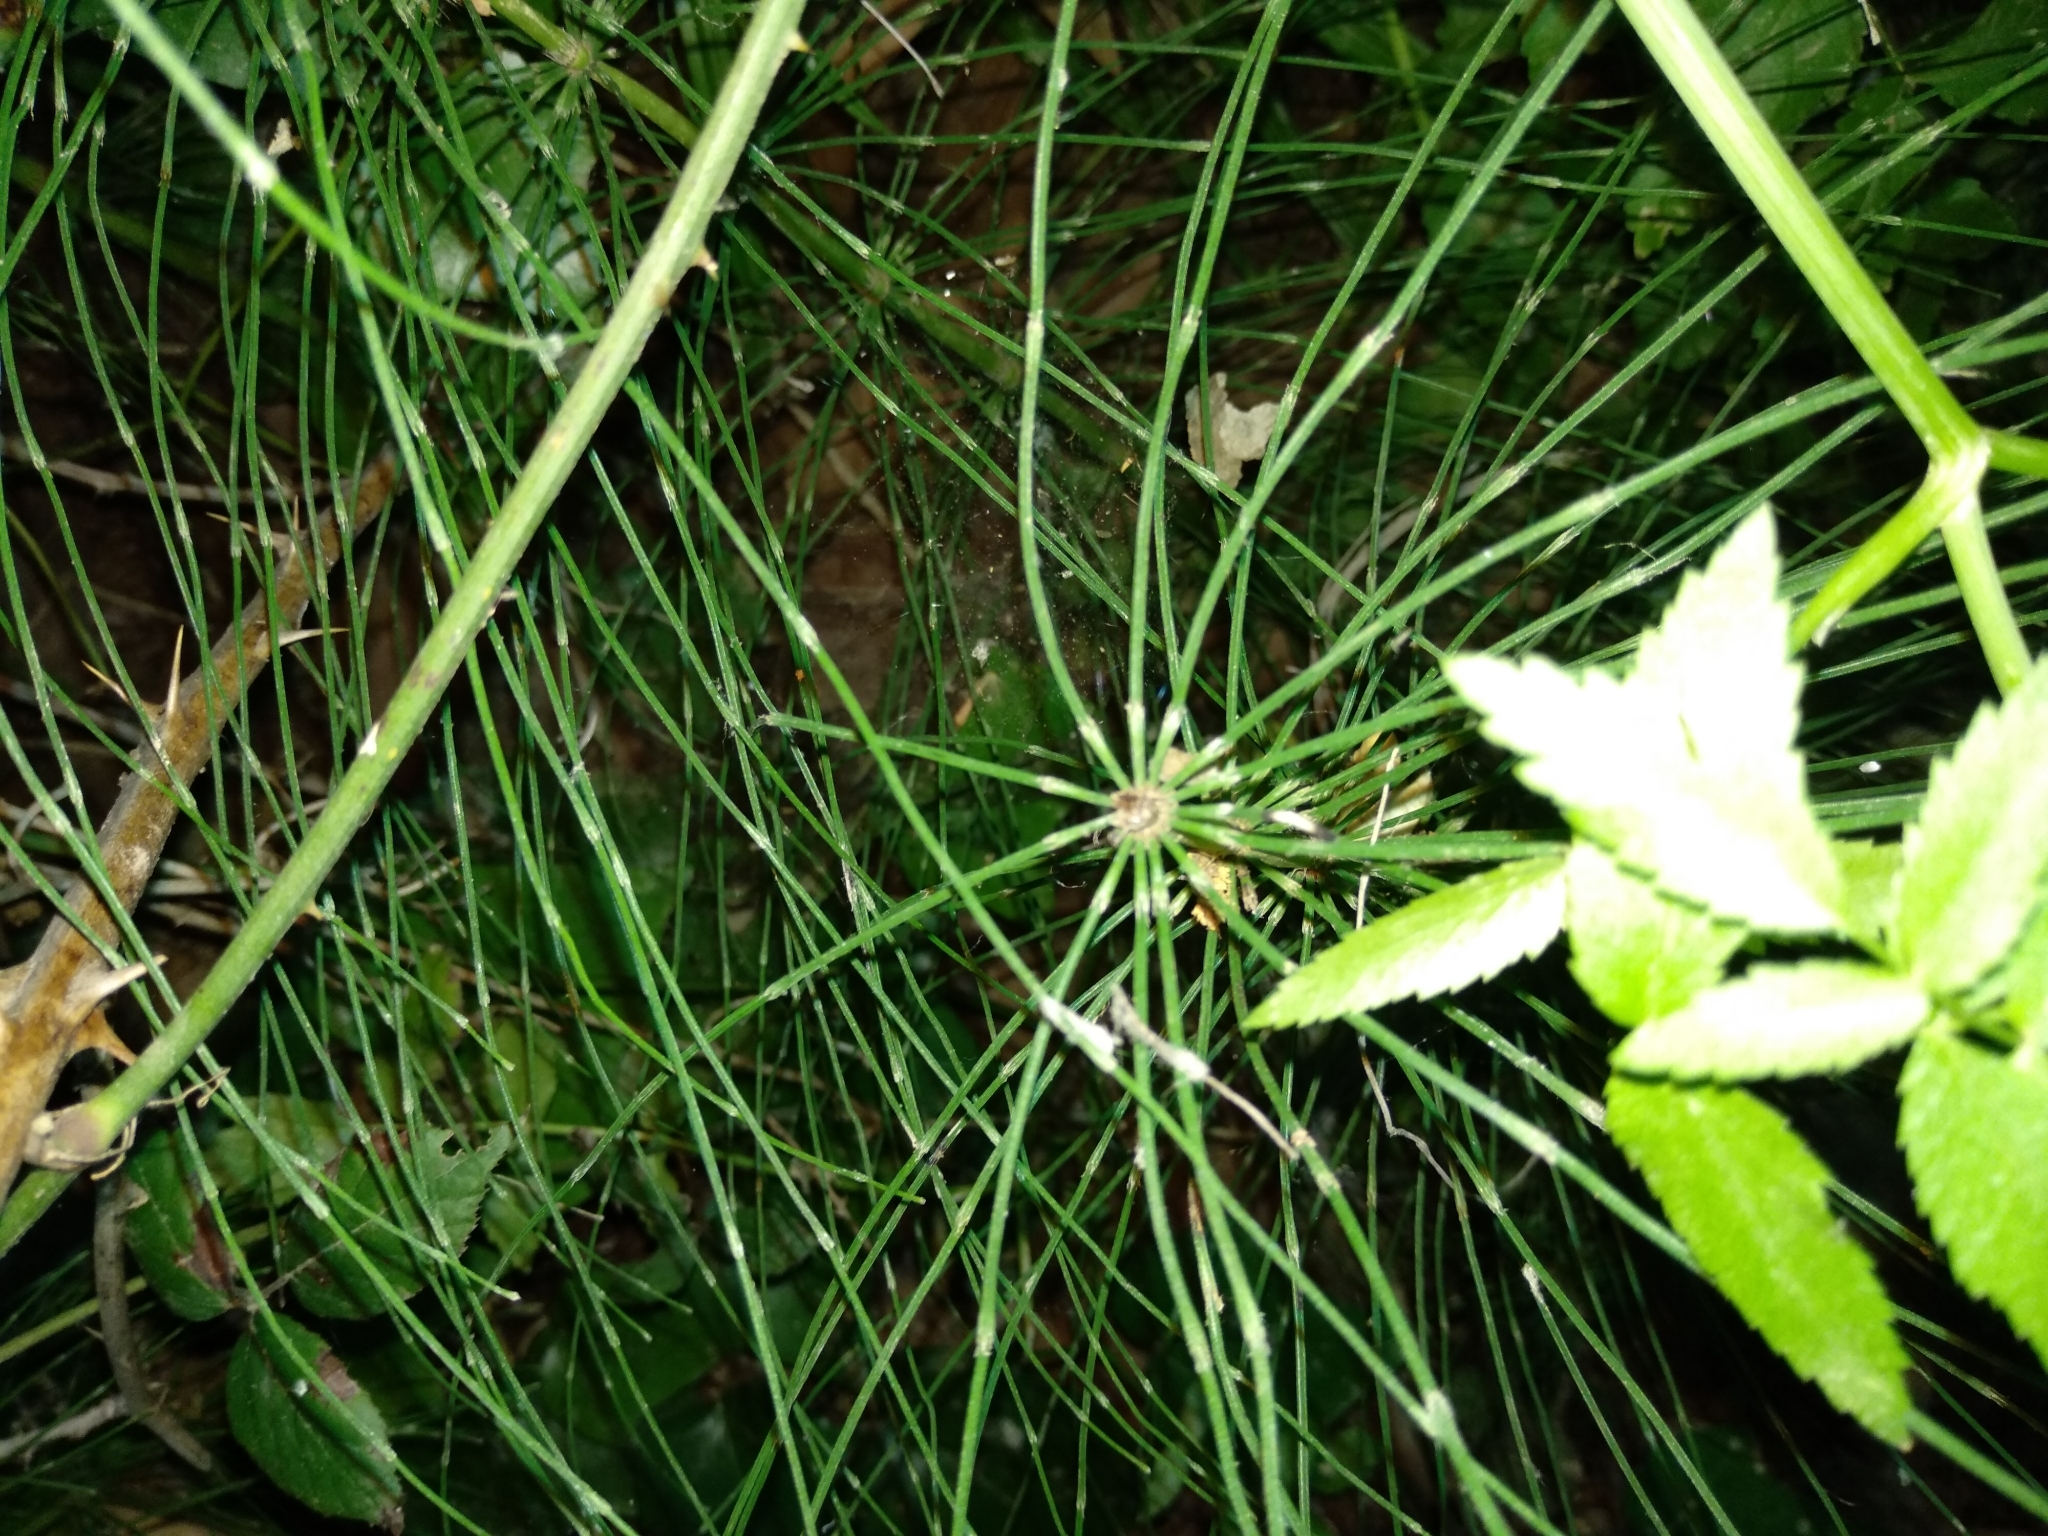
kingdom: Plantae
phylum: Tracheophyta
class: Polypodiopsida
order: Equisetales
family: Equisetaceae
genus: Equisetum
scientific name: Equisetum telmateia
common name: Great horsetail
